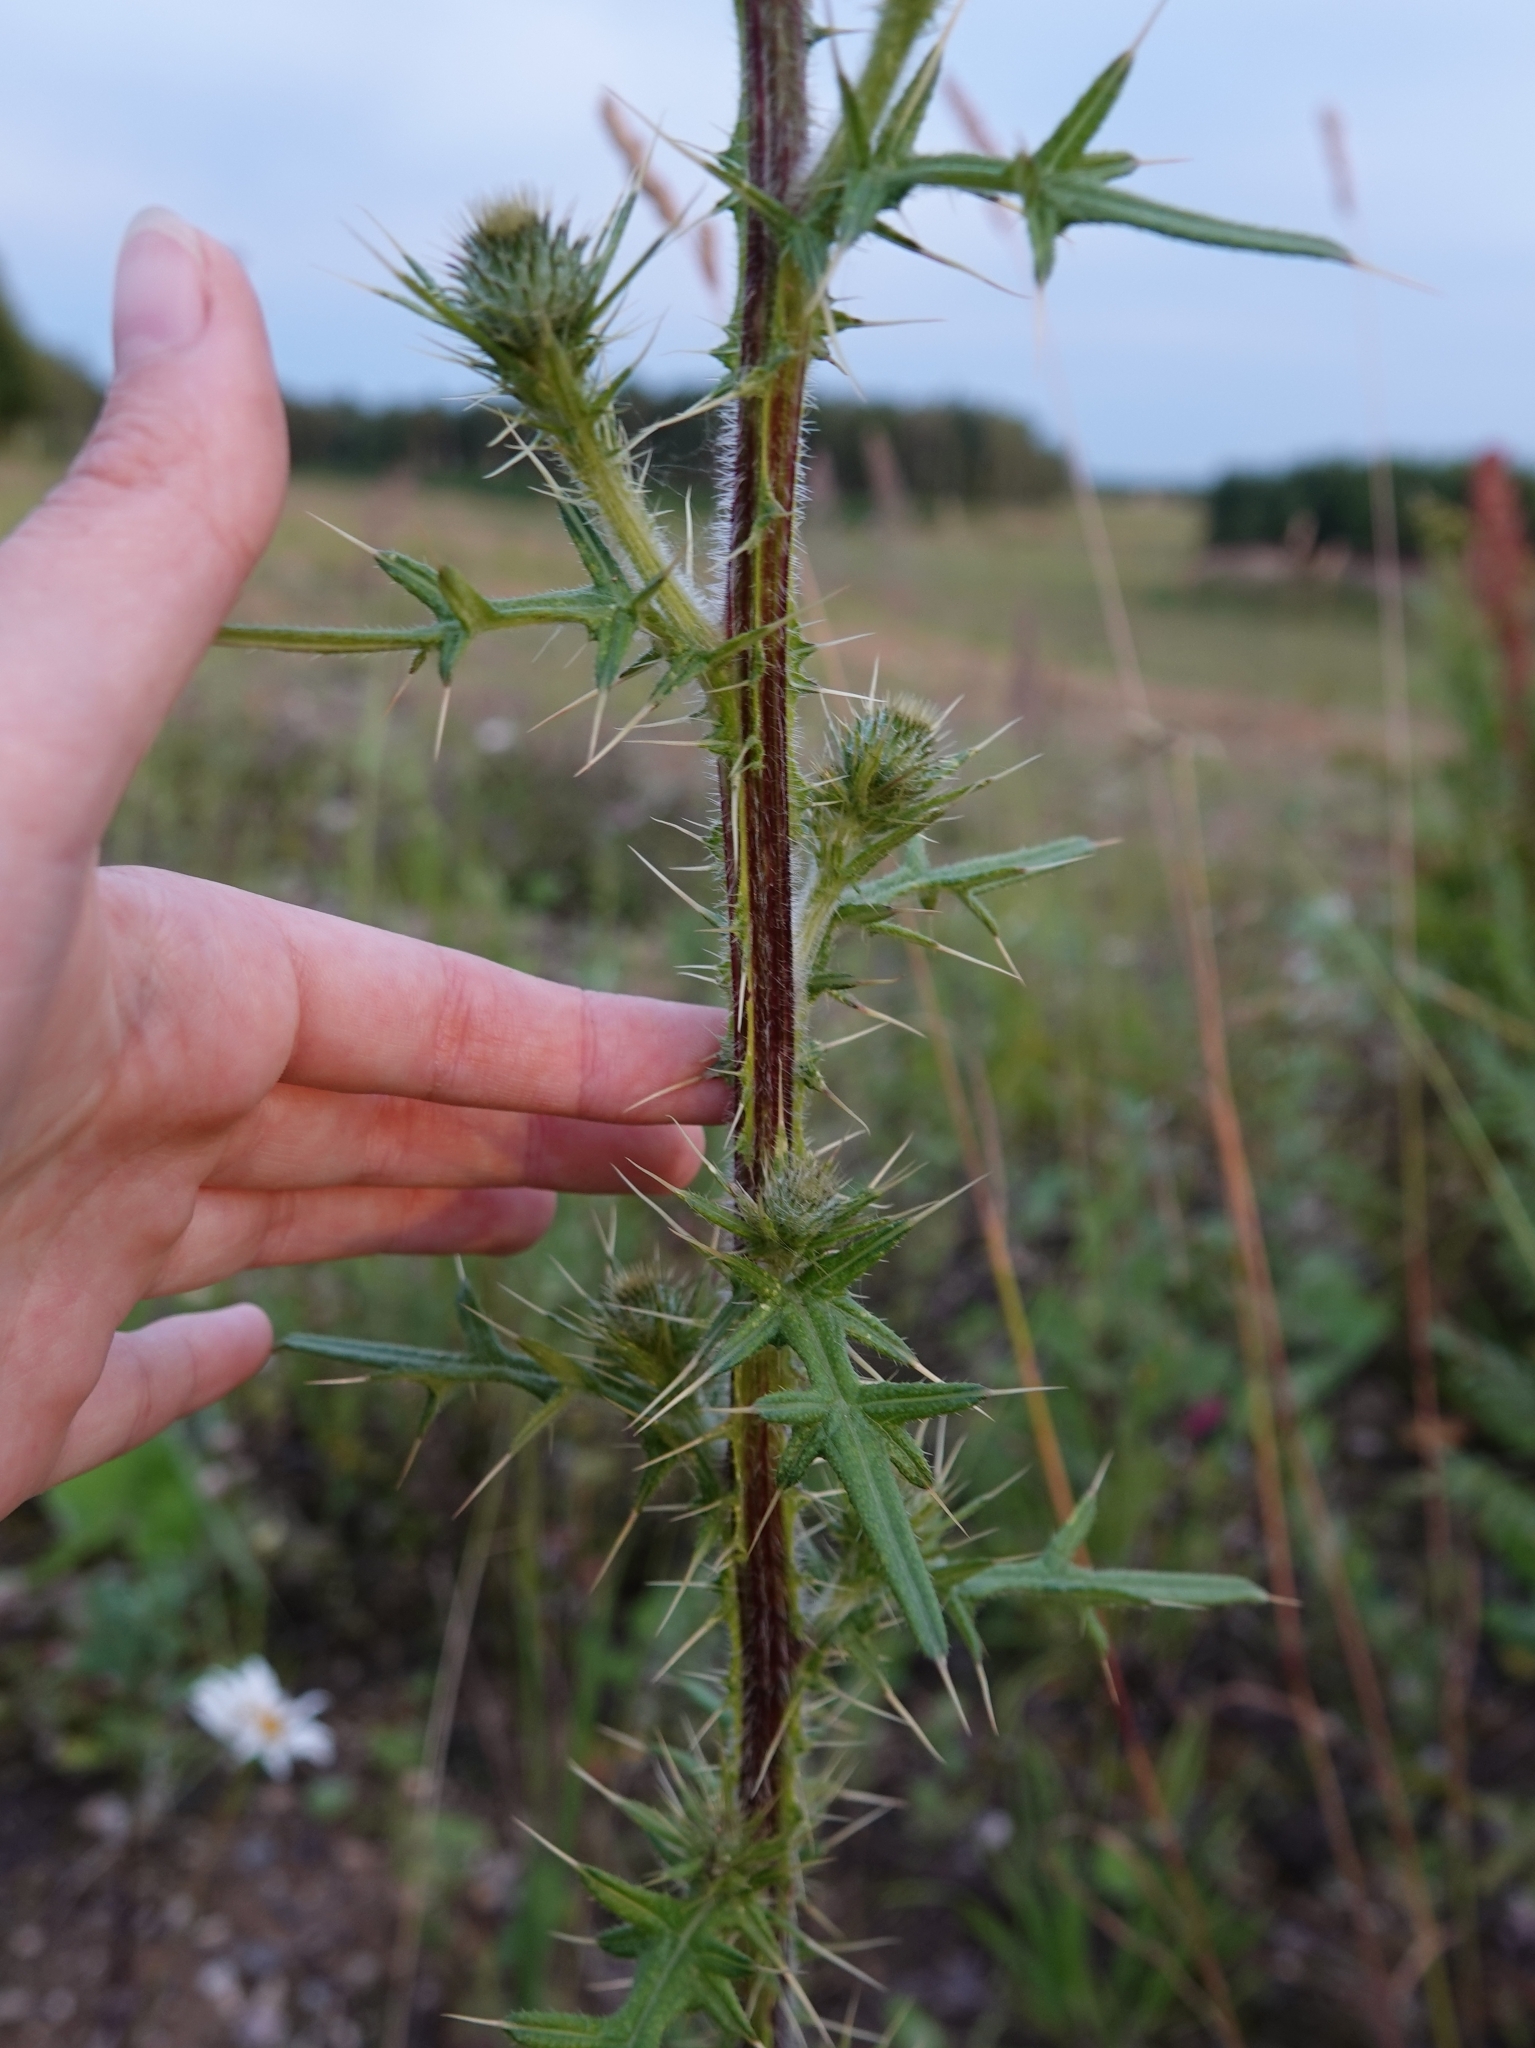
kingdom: Plantae
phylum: Tracheophyta
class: Magnoliopsida
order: Asterales
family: Asteraceae
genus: Cirsium
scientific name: Cirsium vulgare
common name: Bull thistle
